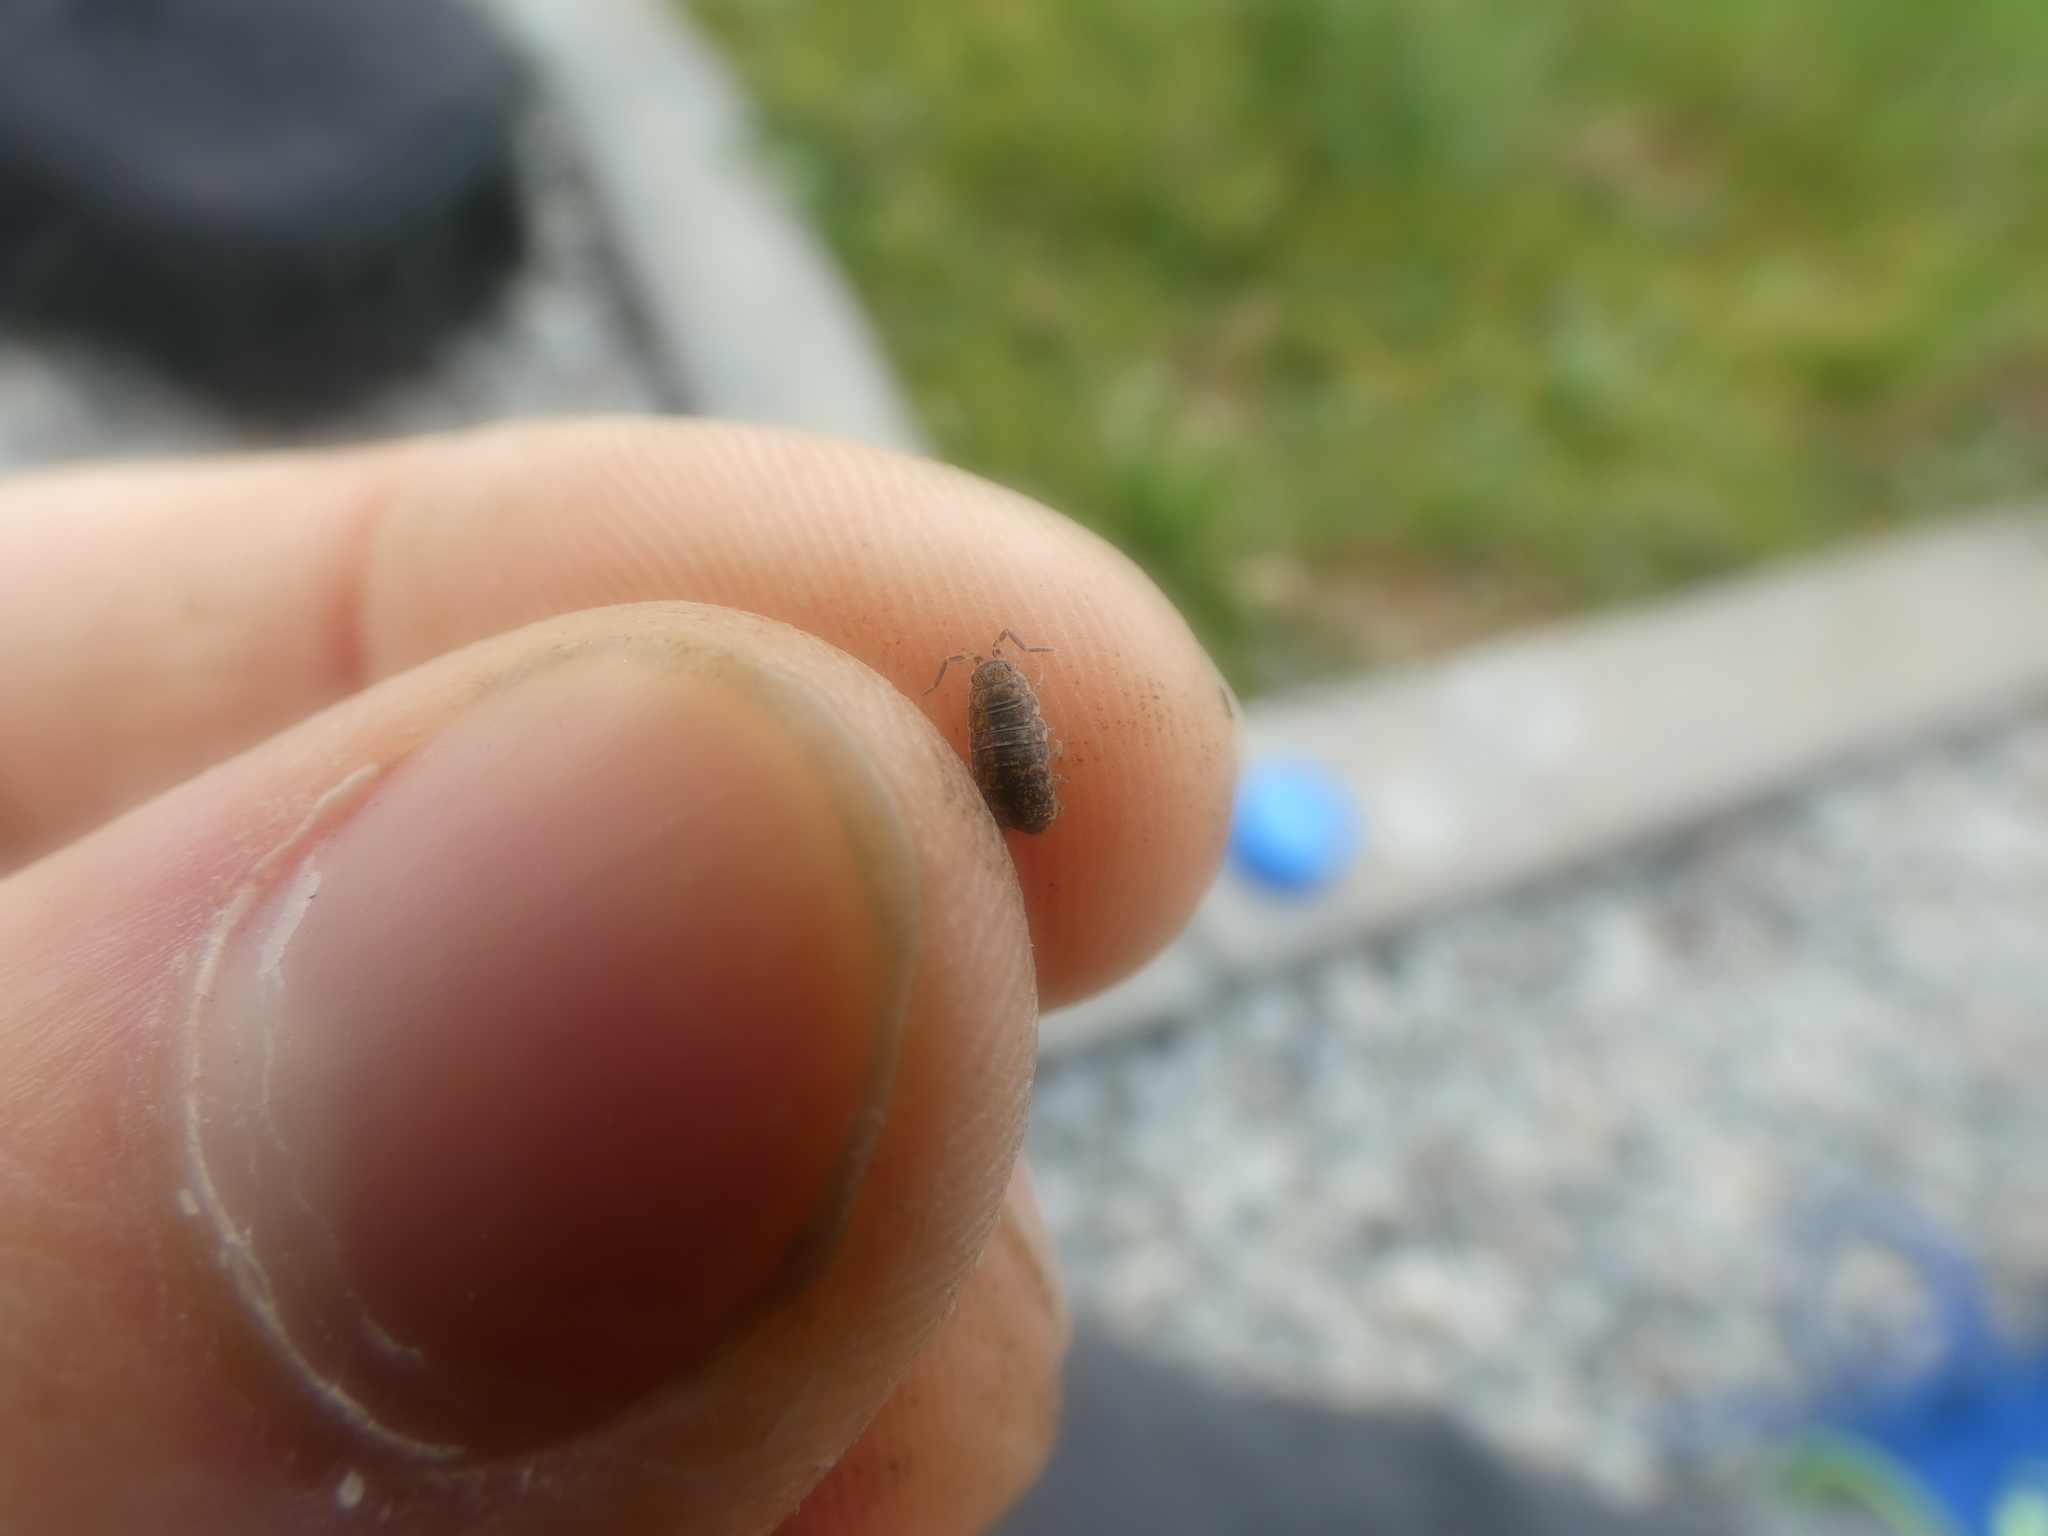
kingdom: Animalia
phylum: Arthropoda
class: Malacostraca
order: Isopoda
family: Porcellionidae
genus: Porcellionides
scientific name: Porcellionides cingendus
